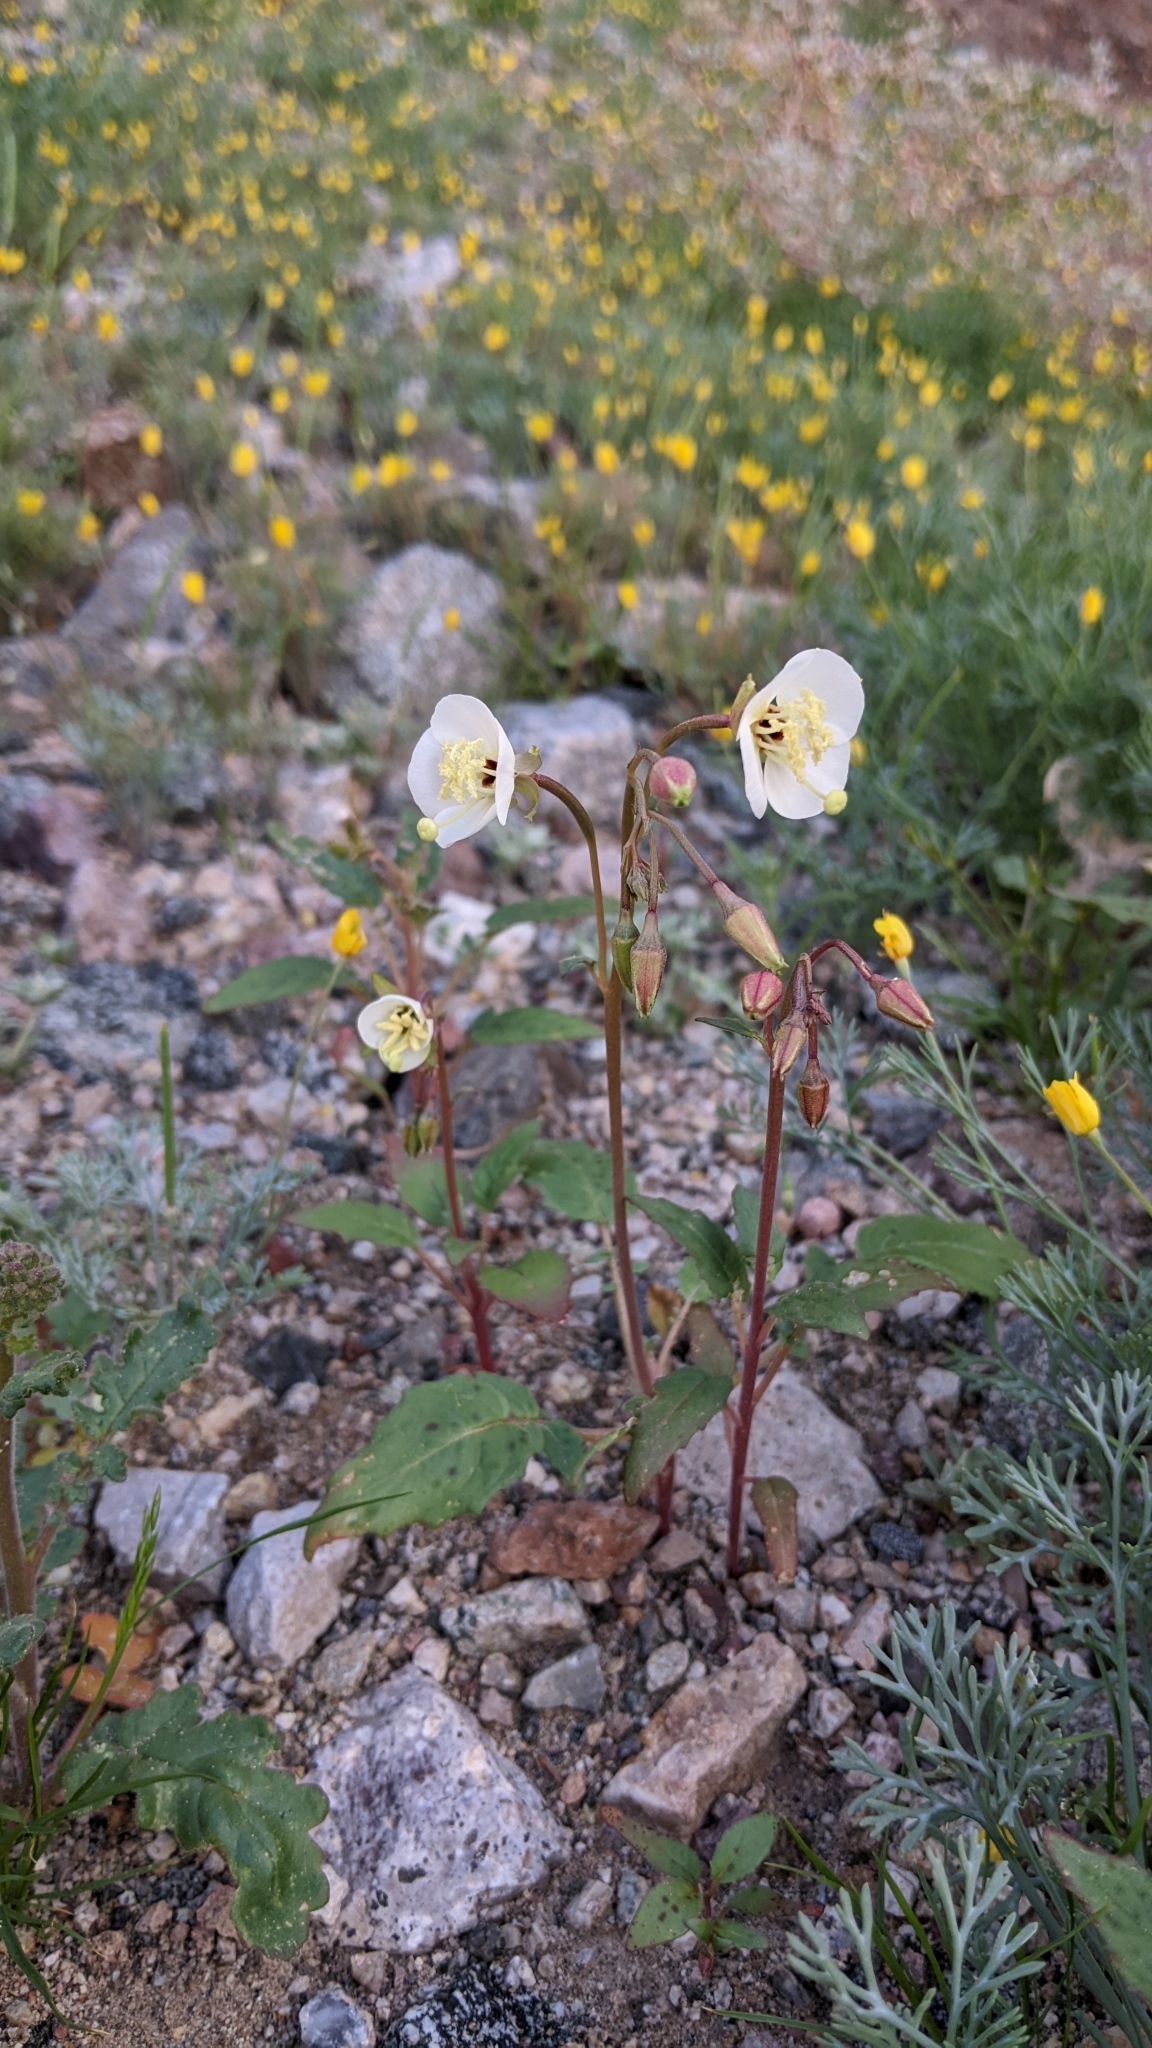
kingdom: Plantae
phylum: Tracheophyta
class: Magnoliopsida
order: Myrtales
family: Onagraceae
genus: Chylismia
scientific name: Chylismia claviformis
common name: Browneyes
